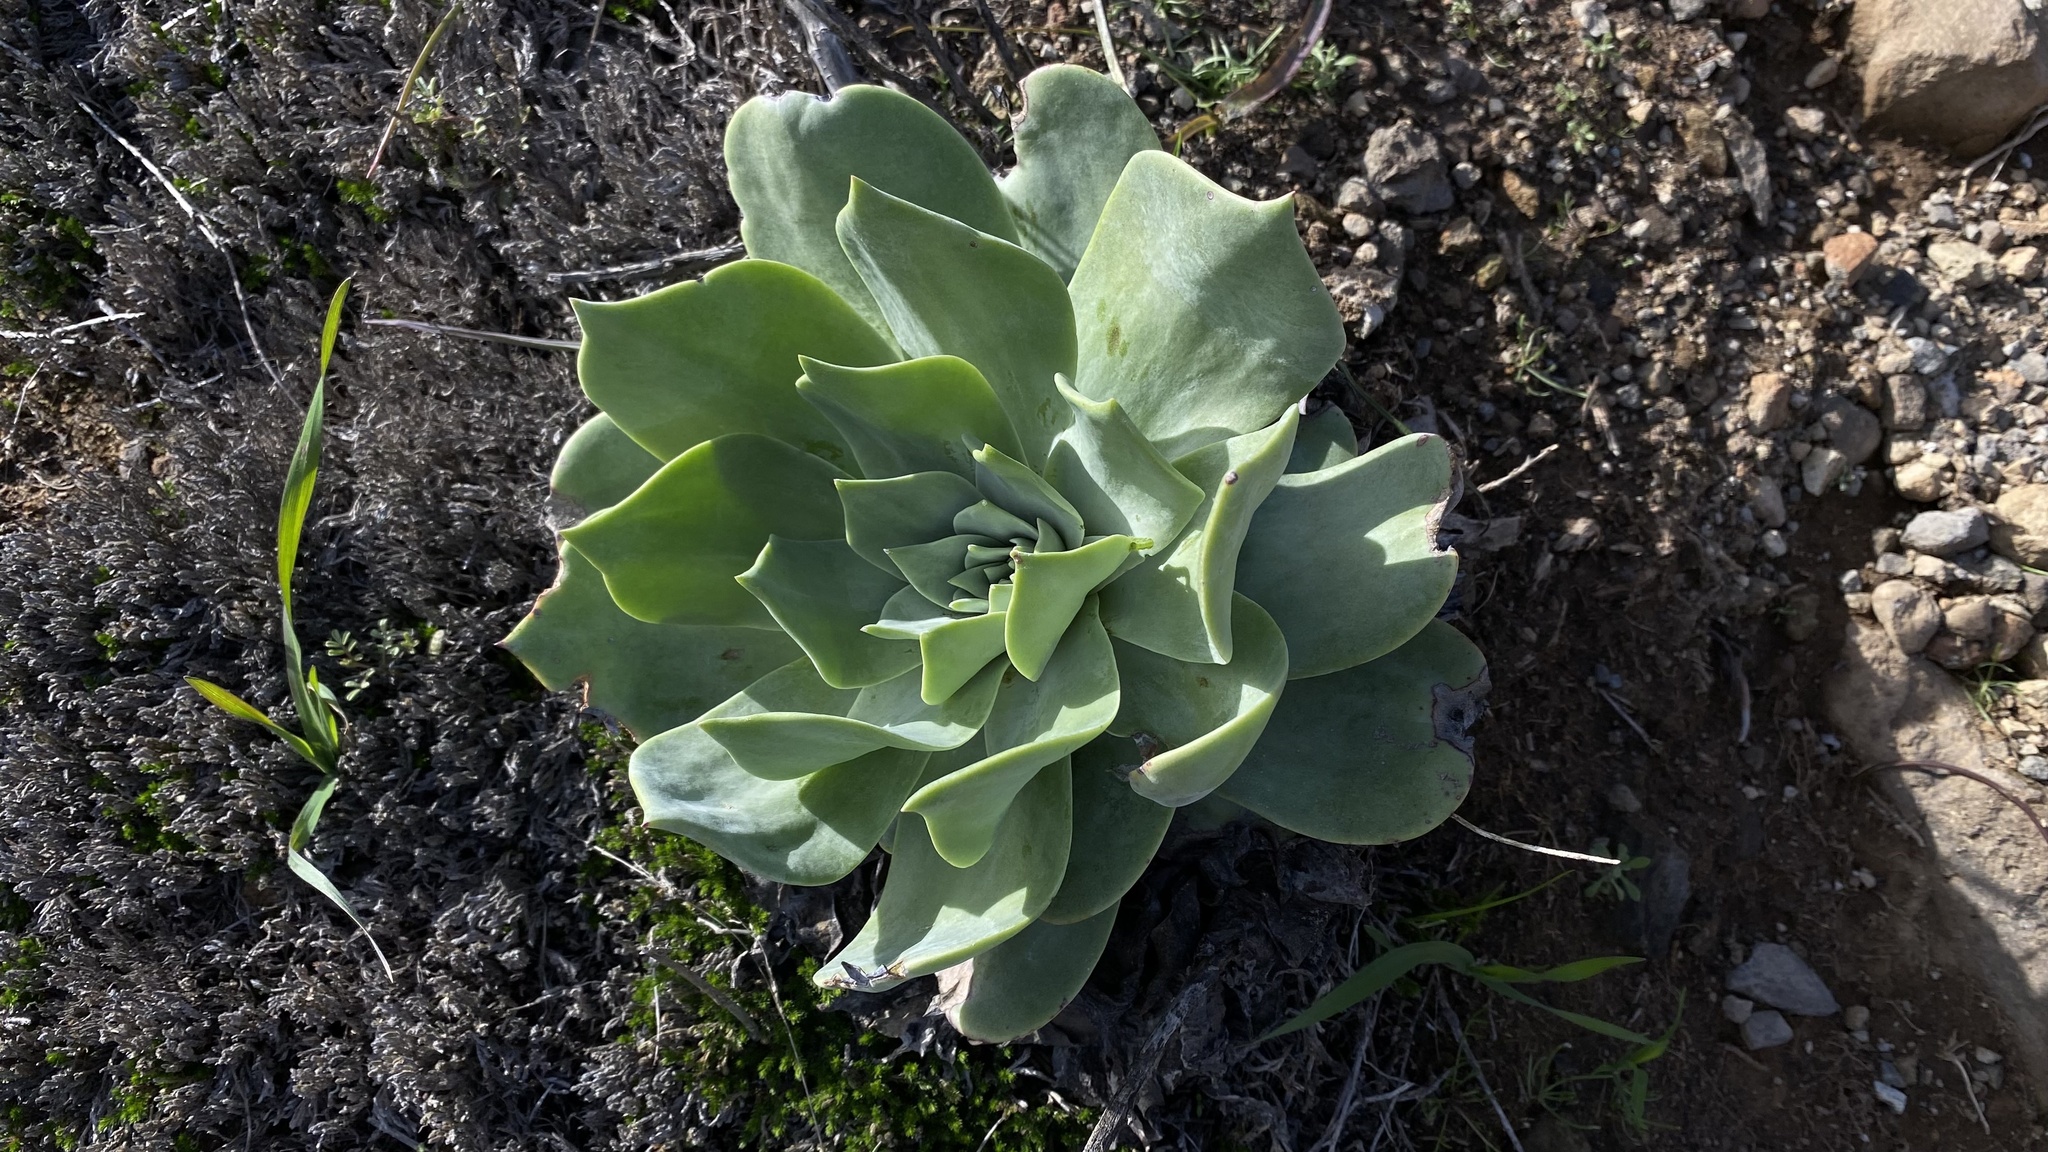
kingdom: Plantae
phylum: Tracheophyta
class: Magnoliopsida
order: Saxifragales
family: Crassulaceae
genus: Dudleya
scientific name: Dudleya pulverulenta
